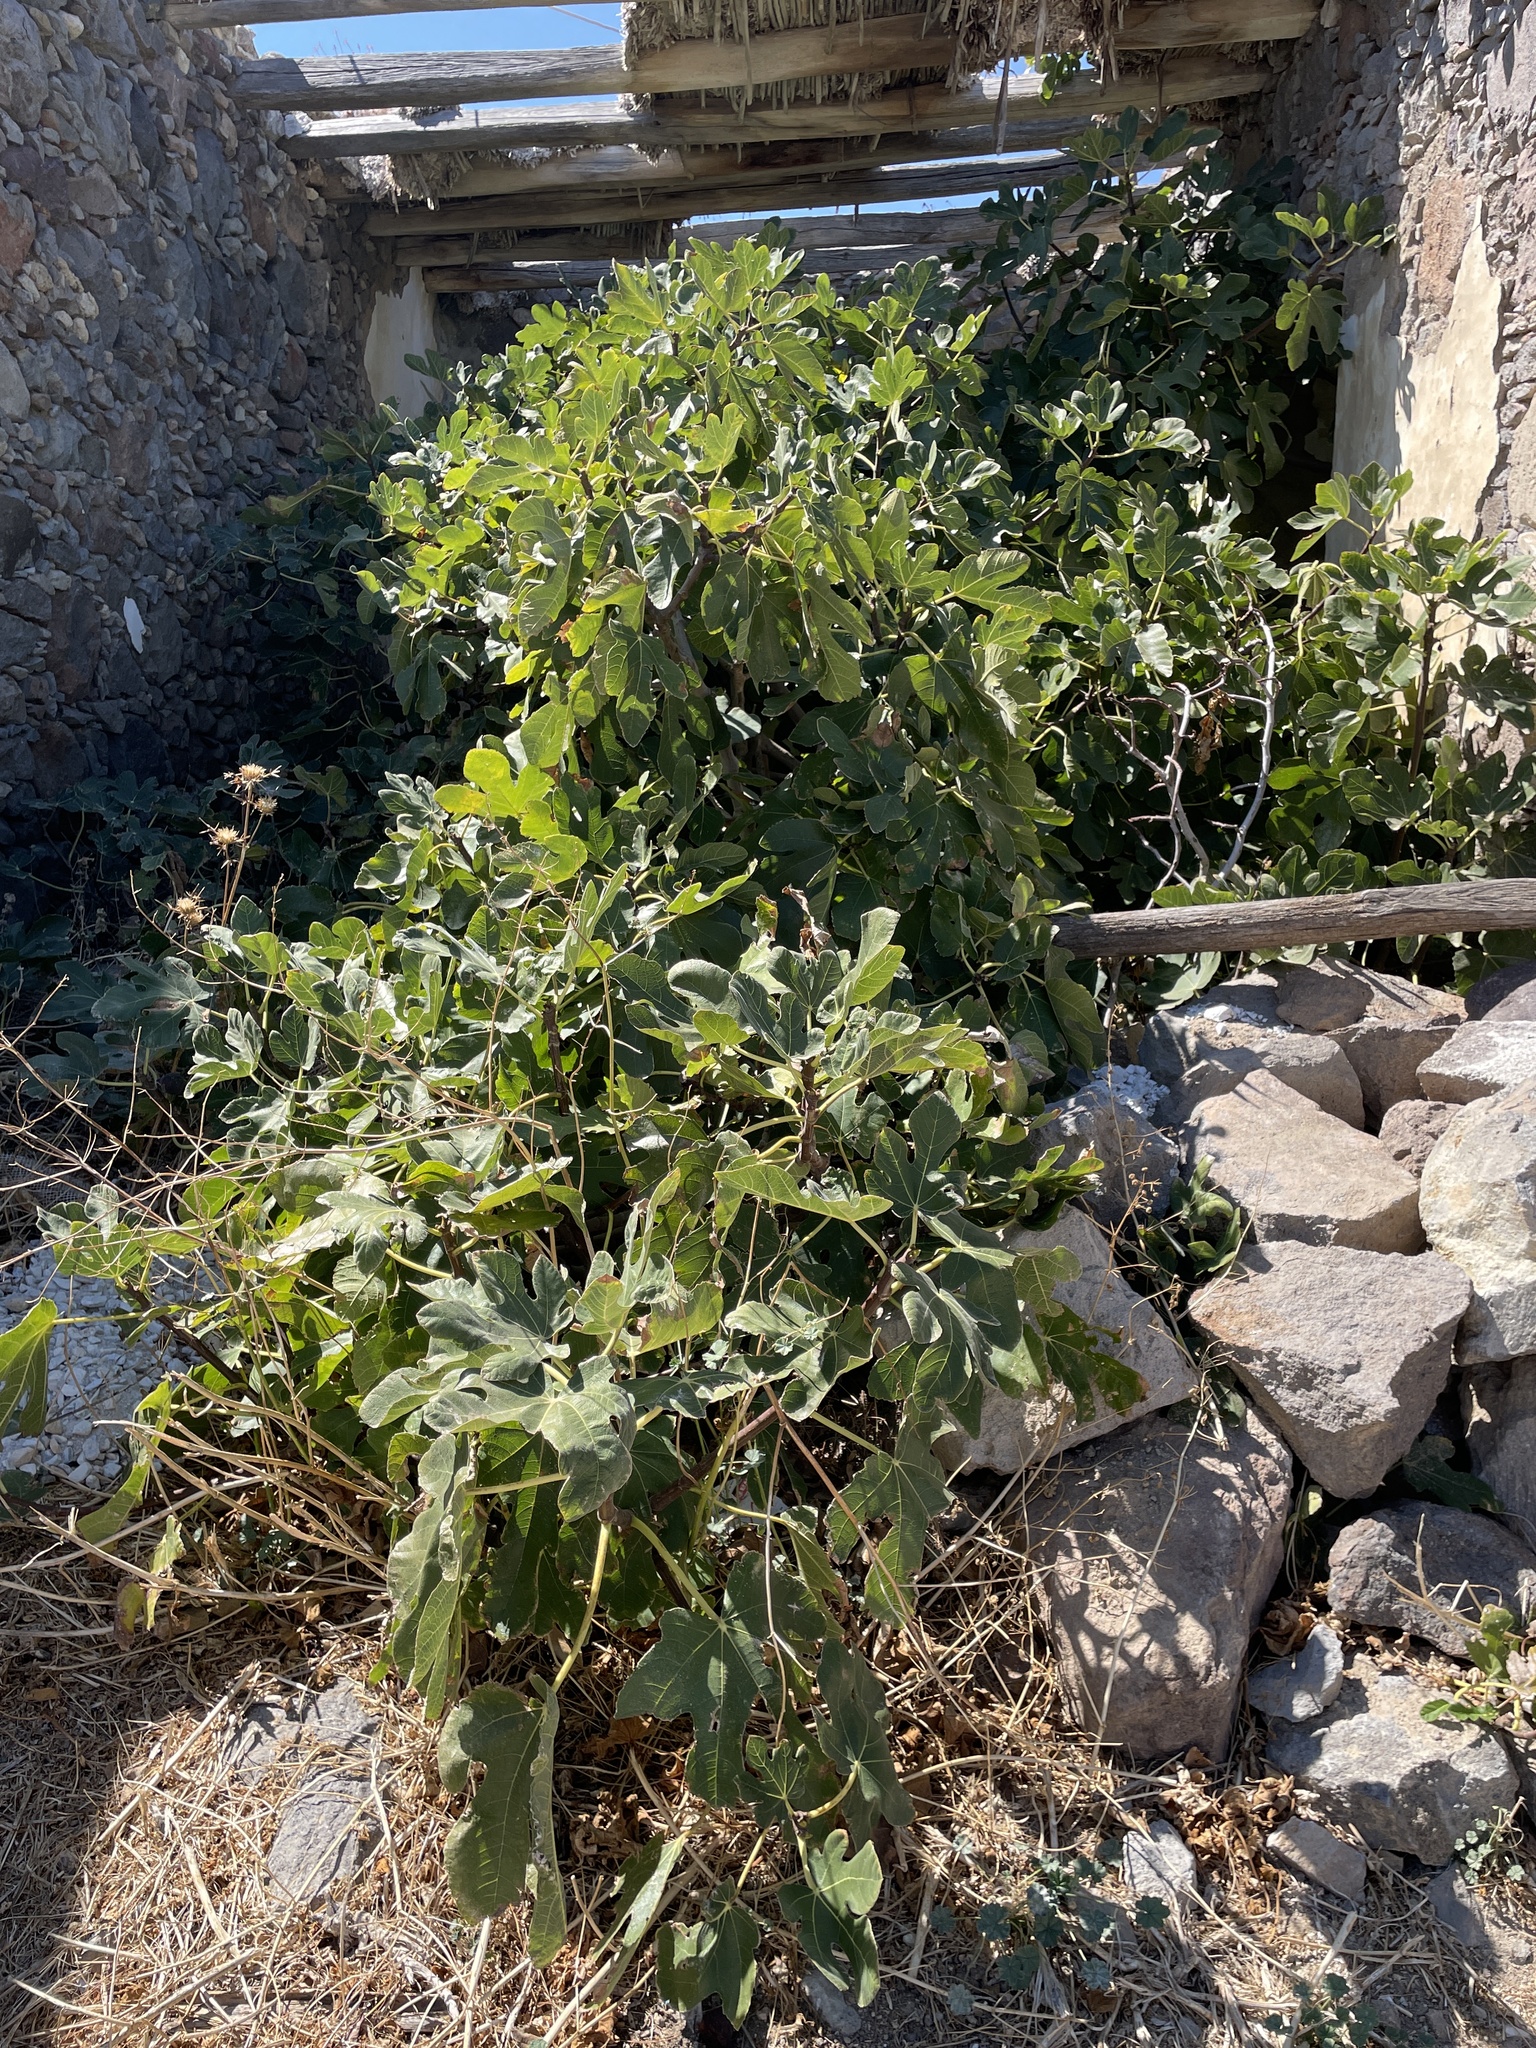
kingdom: Plantae
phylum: Tracheophyta
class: Magnoliopsida
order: Rosales
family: Moraceae
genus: Ficus
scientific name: Ficus carica
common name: Fig
